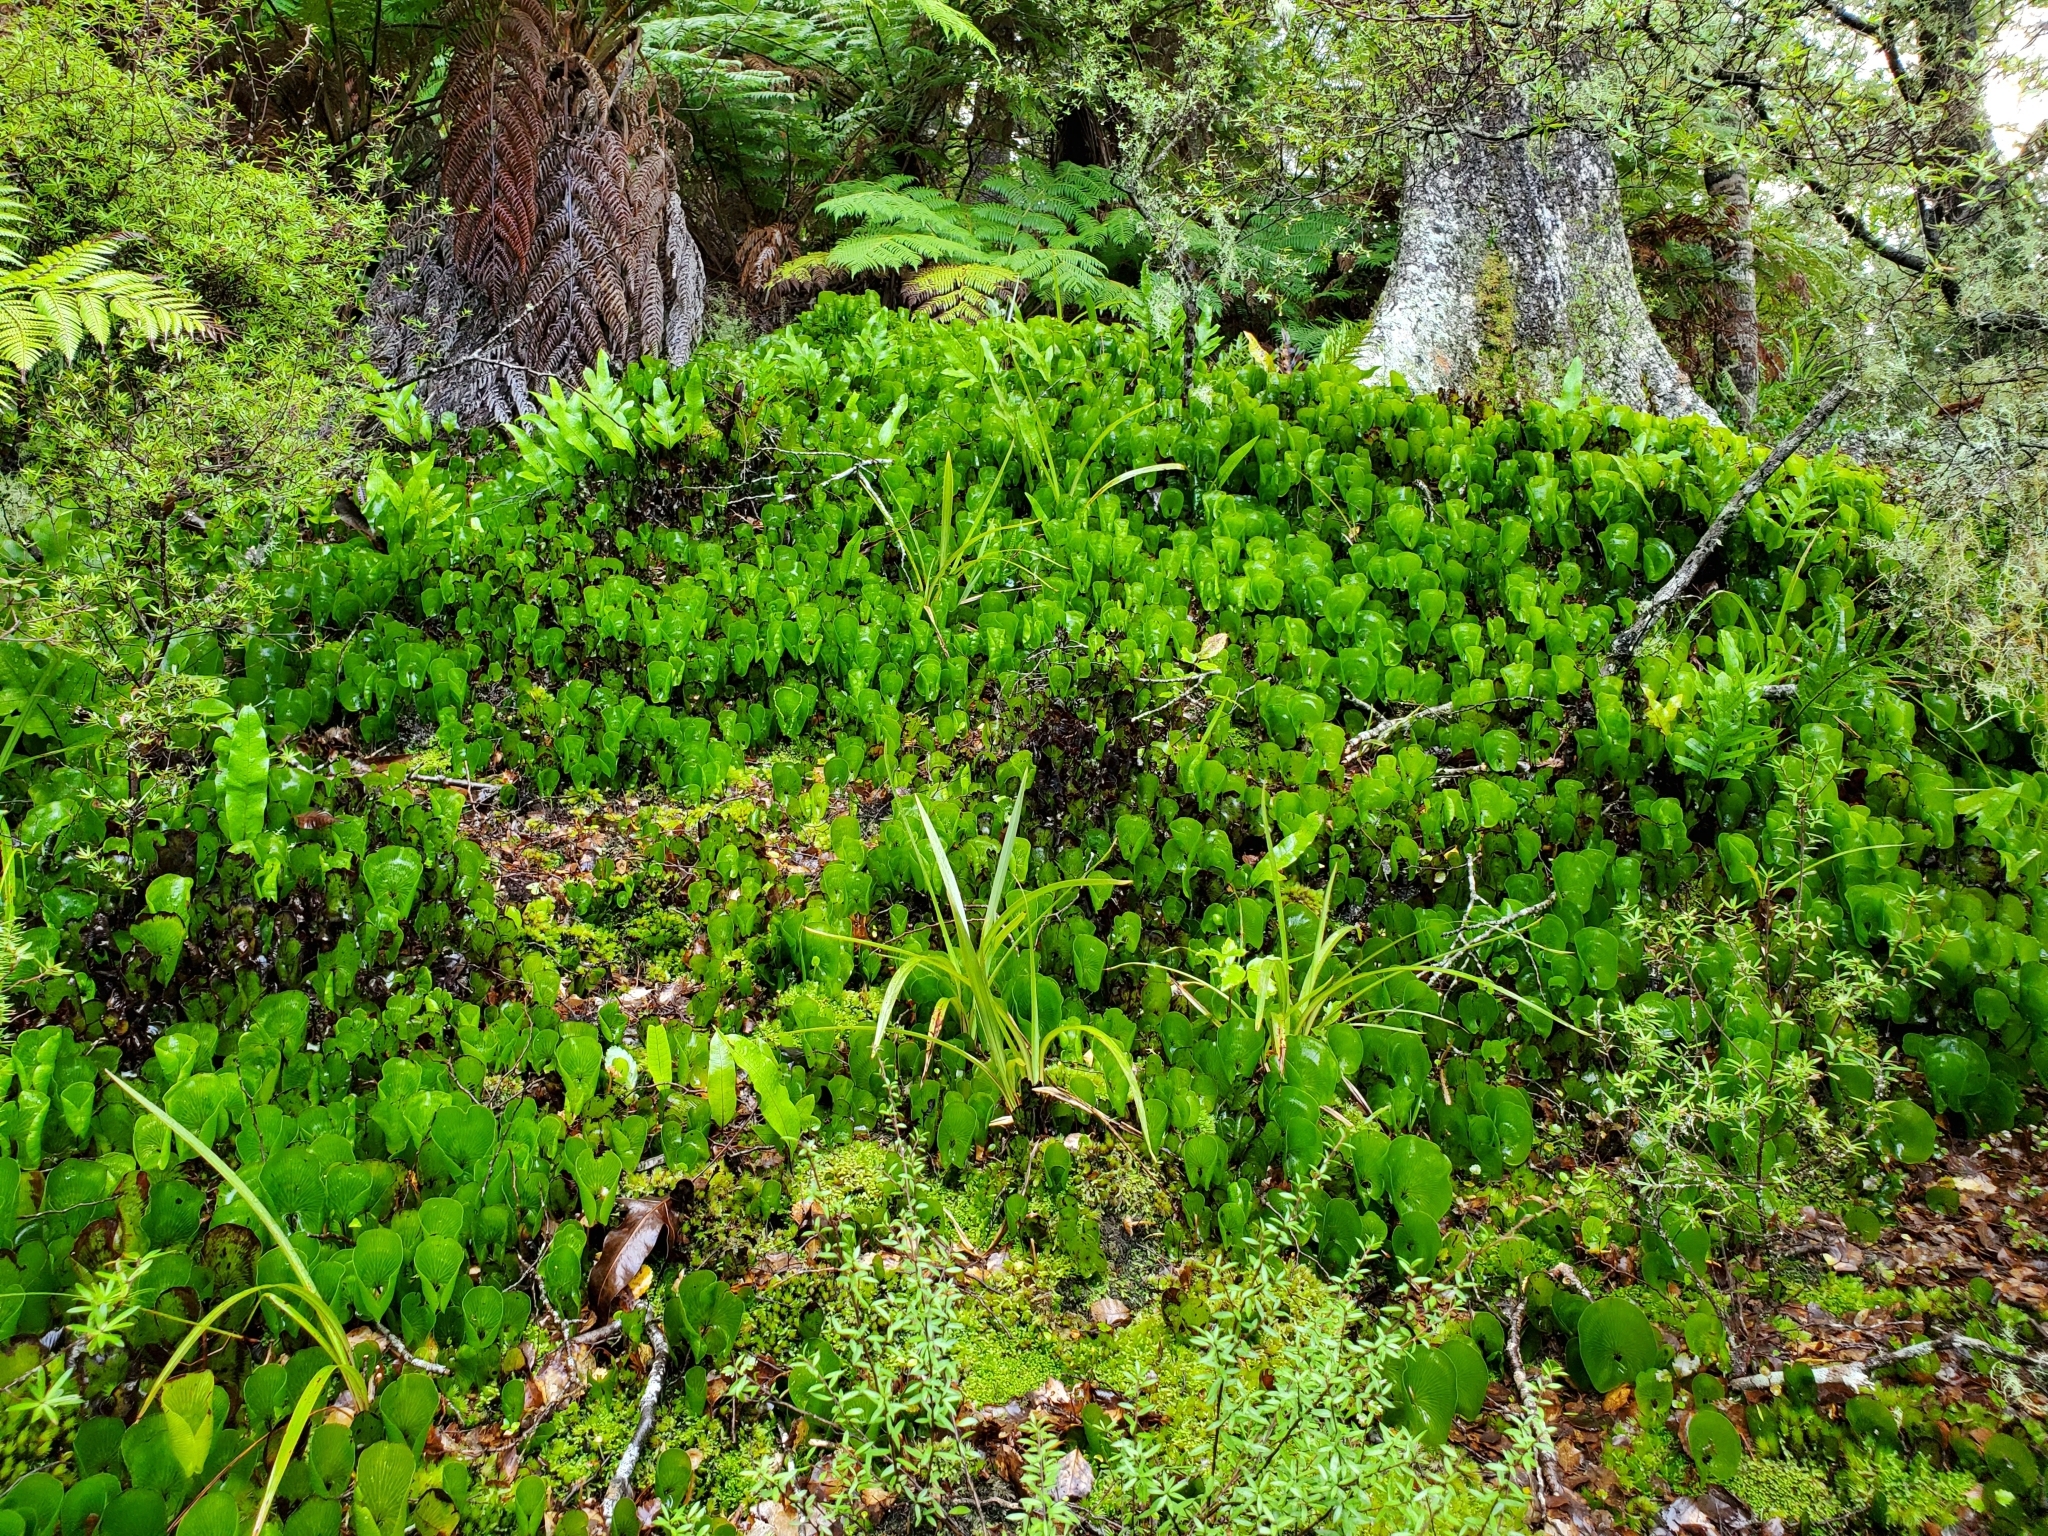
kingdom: Plantae
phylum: Tracheophyta
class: Polypodiopsida
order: Hymenophyllales
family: Hymenophyllaceae
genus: Hymenophyllum
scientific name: Hymenophyllum nephrophyllum
